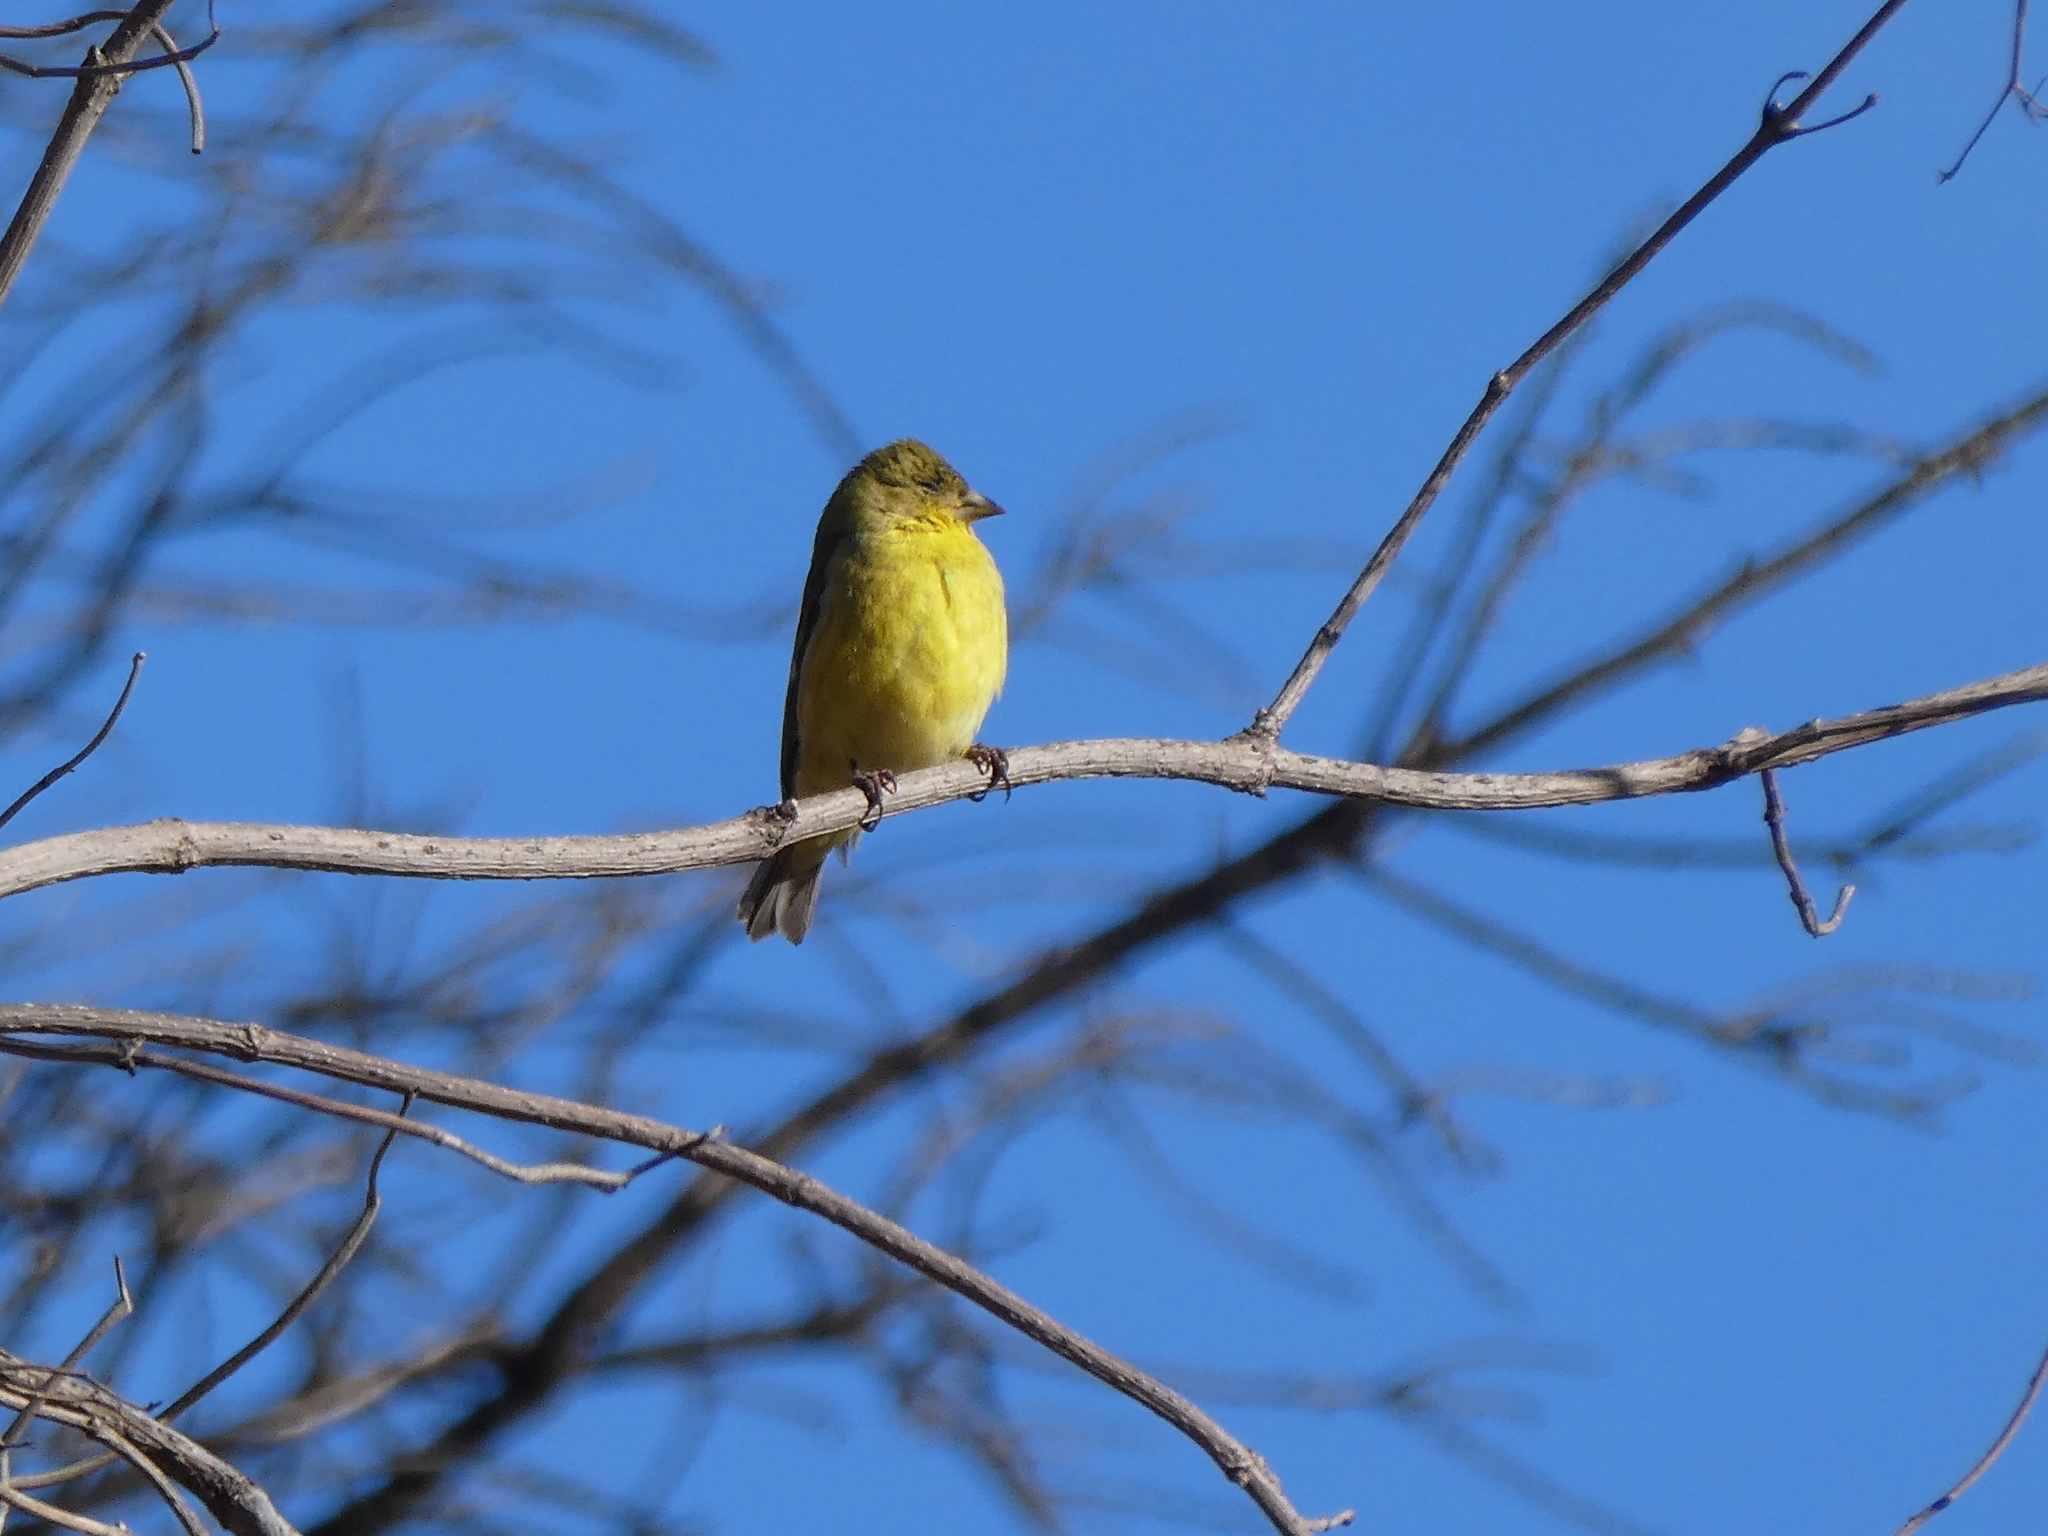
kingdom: Animalia
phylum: Chordata
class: Aves
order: Passeriformes
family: Fringillidae
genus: Spinus
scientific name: Spinus psaltria
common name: Lesser goldfinch
